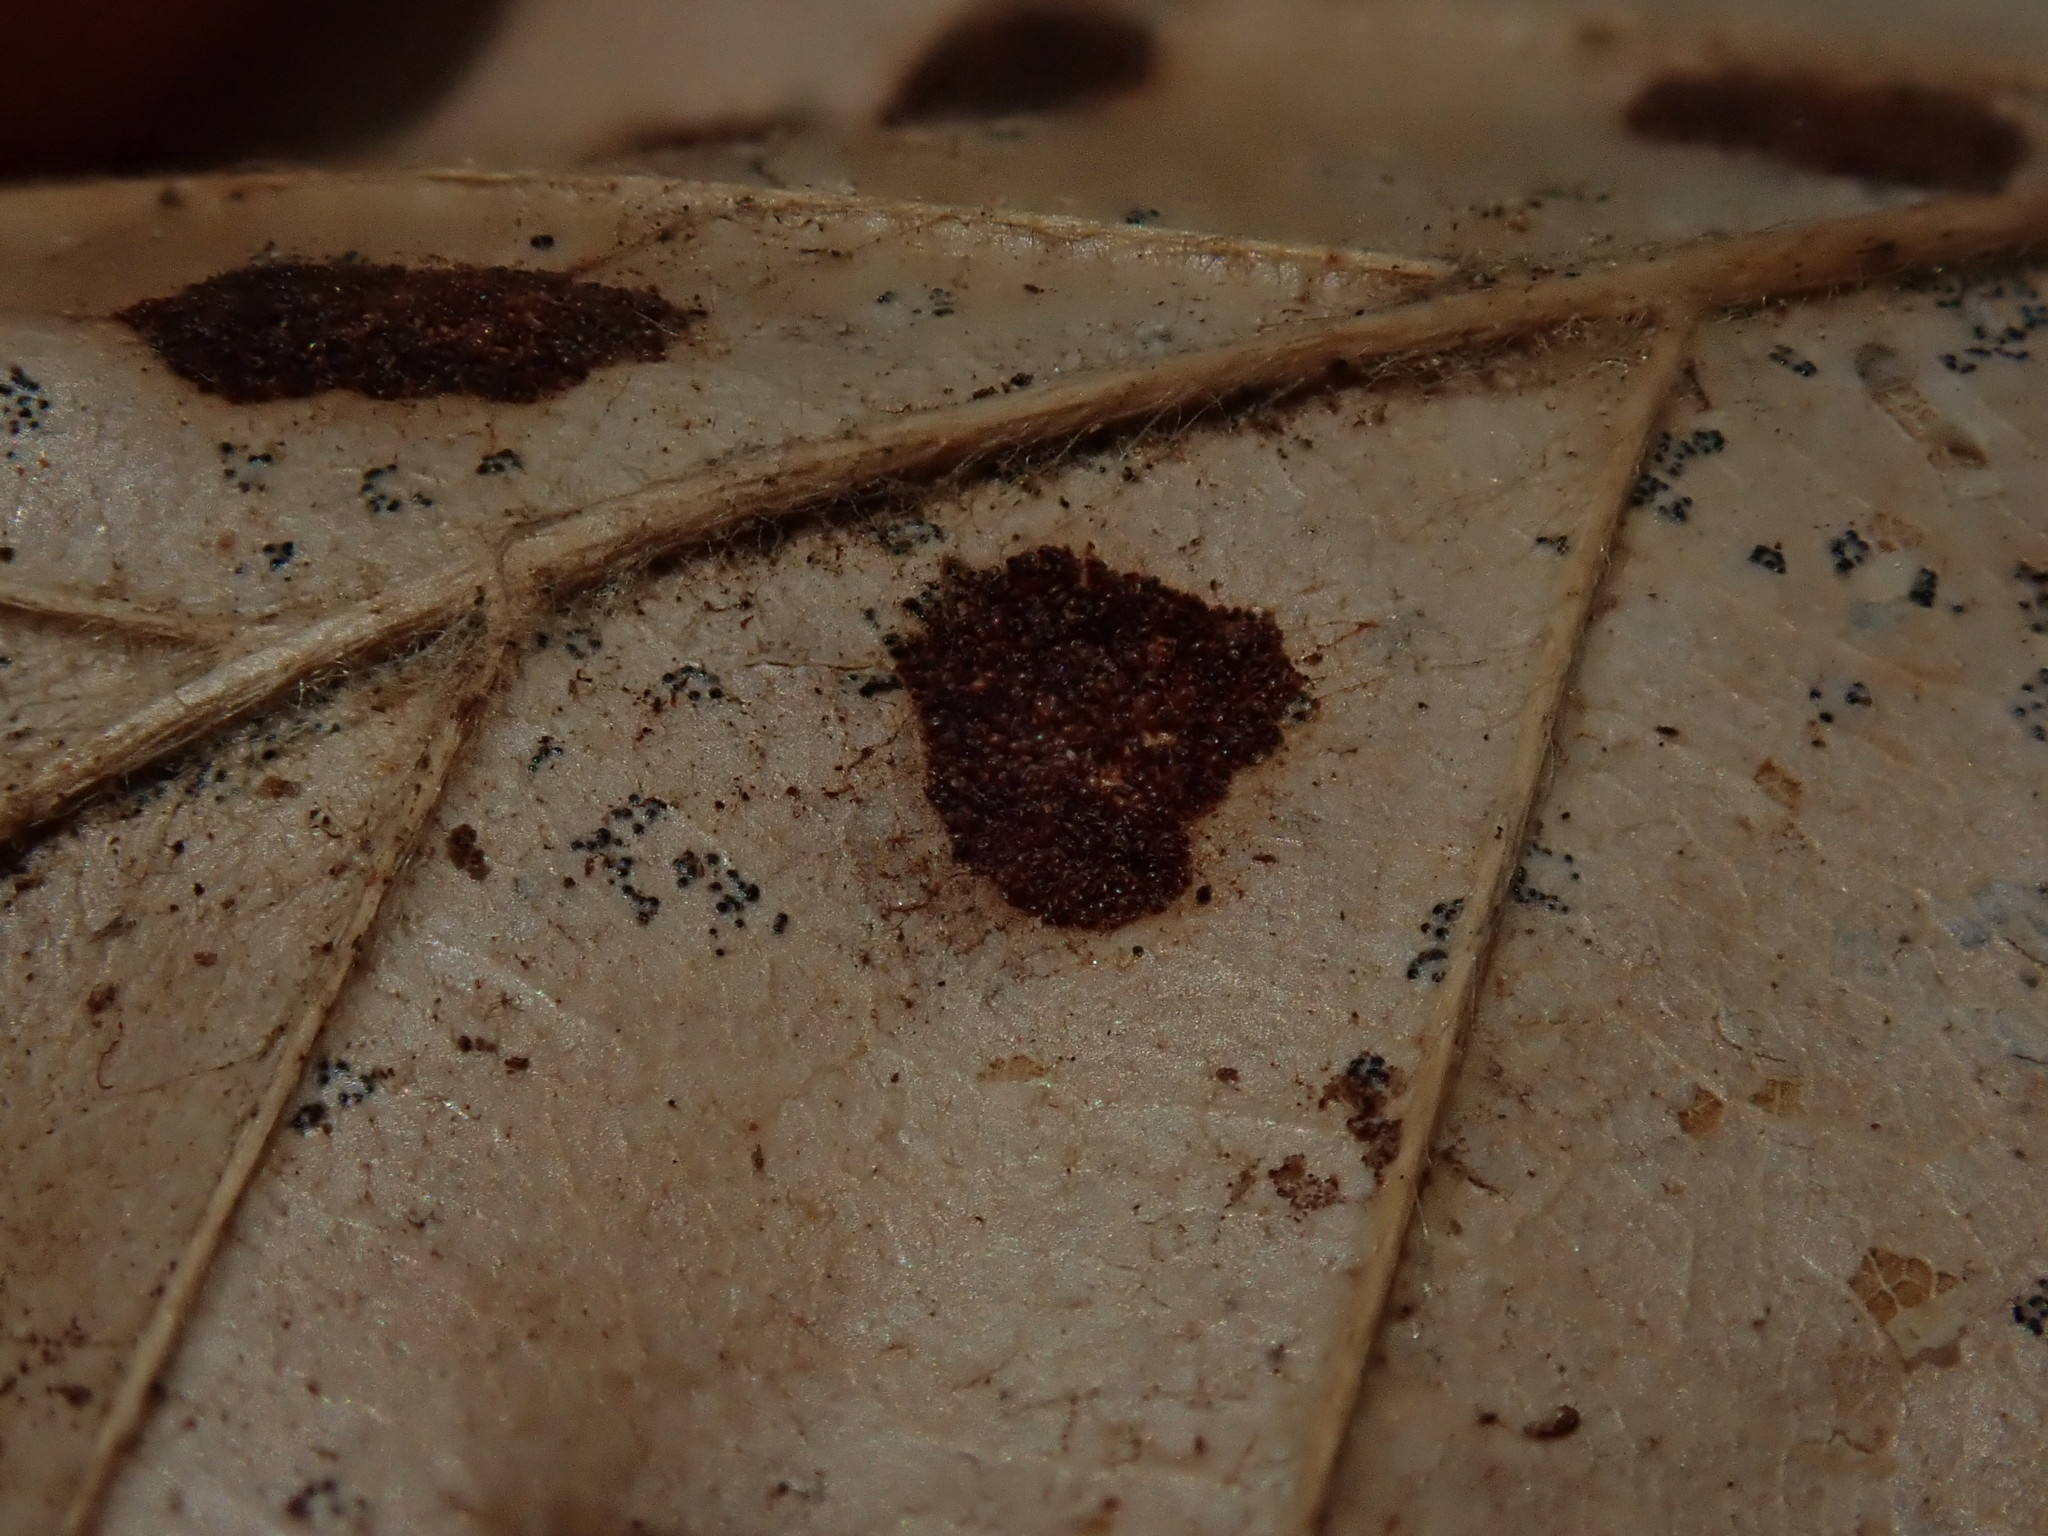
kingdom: Animalia
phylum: Arthropoda
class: Arachnida
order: Trombidiformes
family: Eriophyidae
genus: Acalitus
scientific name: Acalitus
